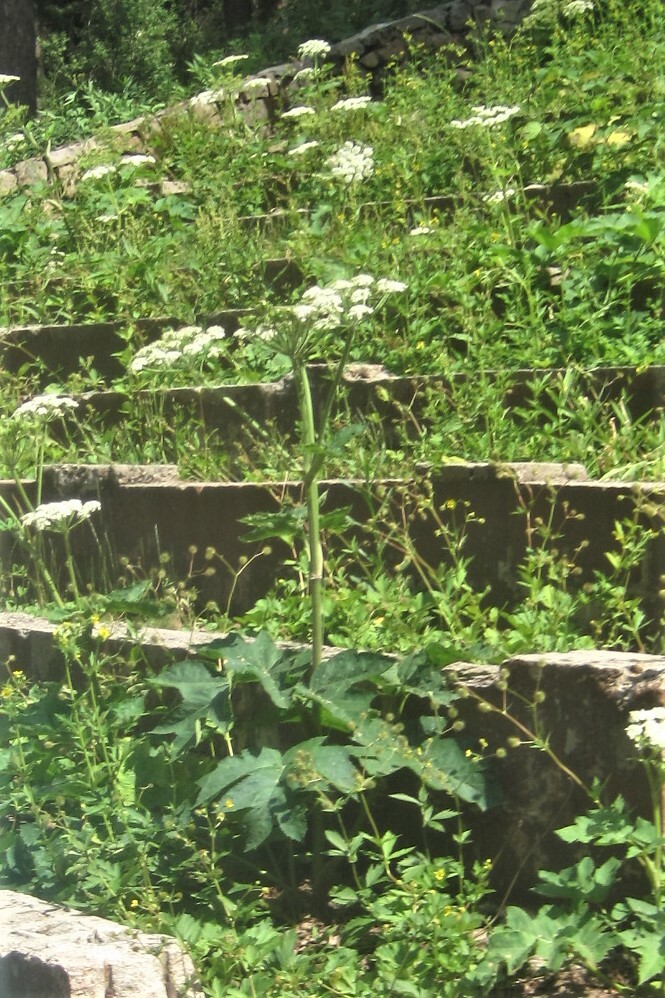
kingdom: Plantae
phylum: Tracheophyta
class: Magnoliopsida
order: Apiales
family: Apiaceae
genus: Heracleum
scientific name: Heracleum maximum
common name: American cow parsnip
